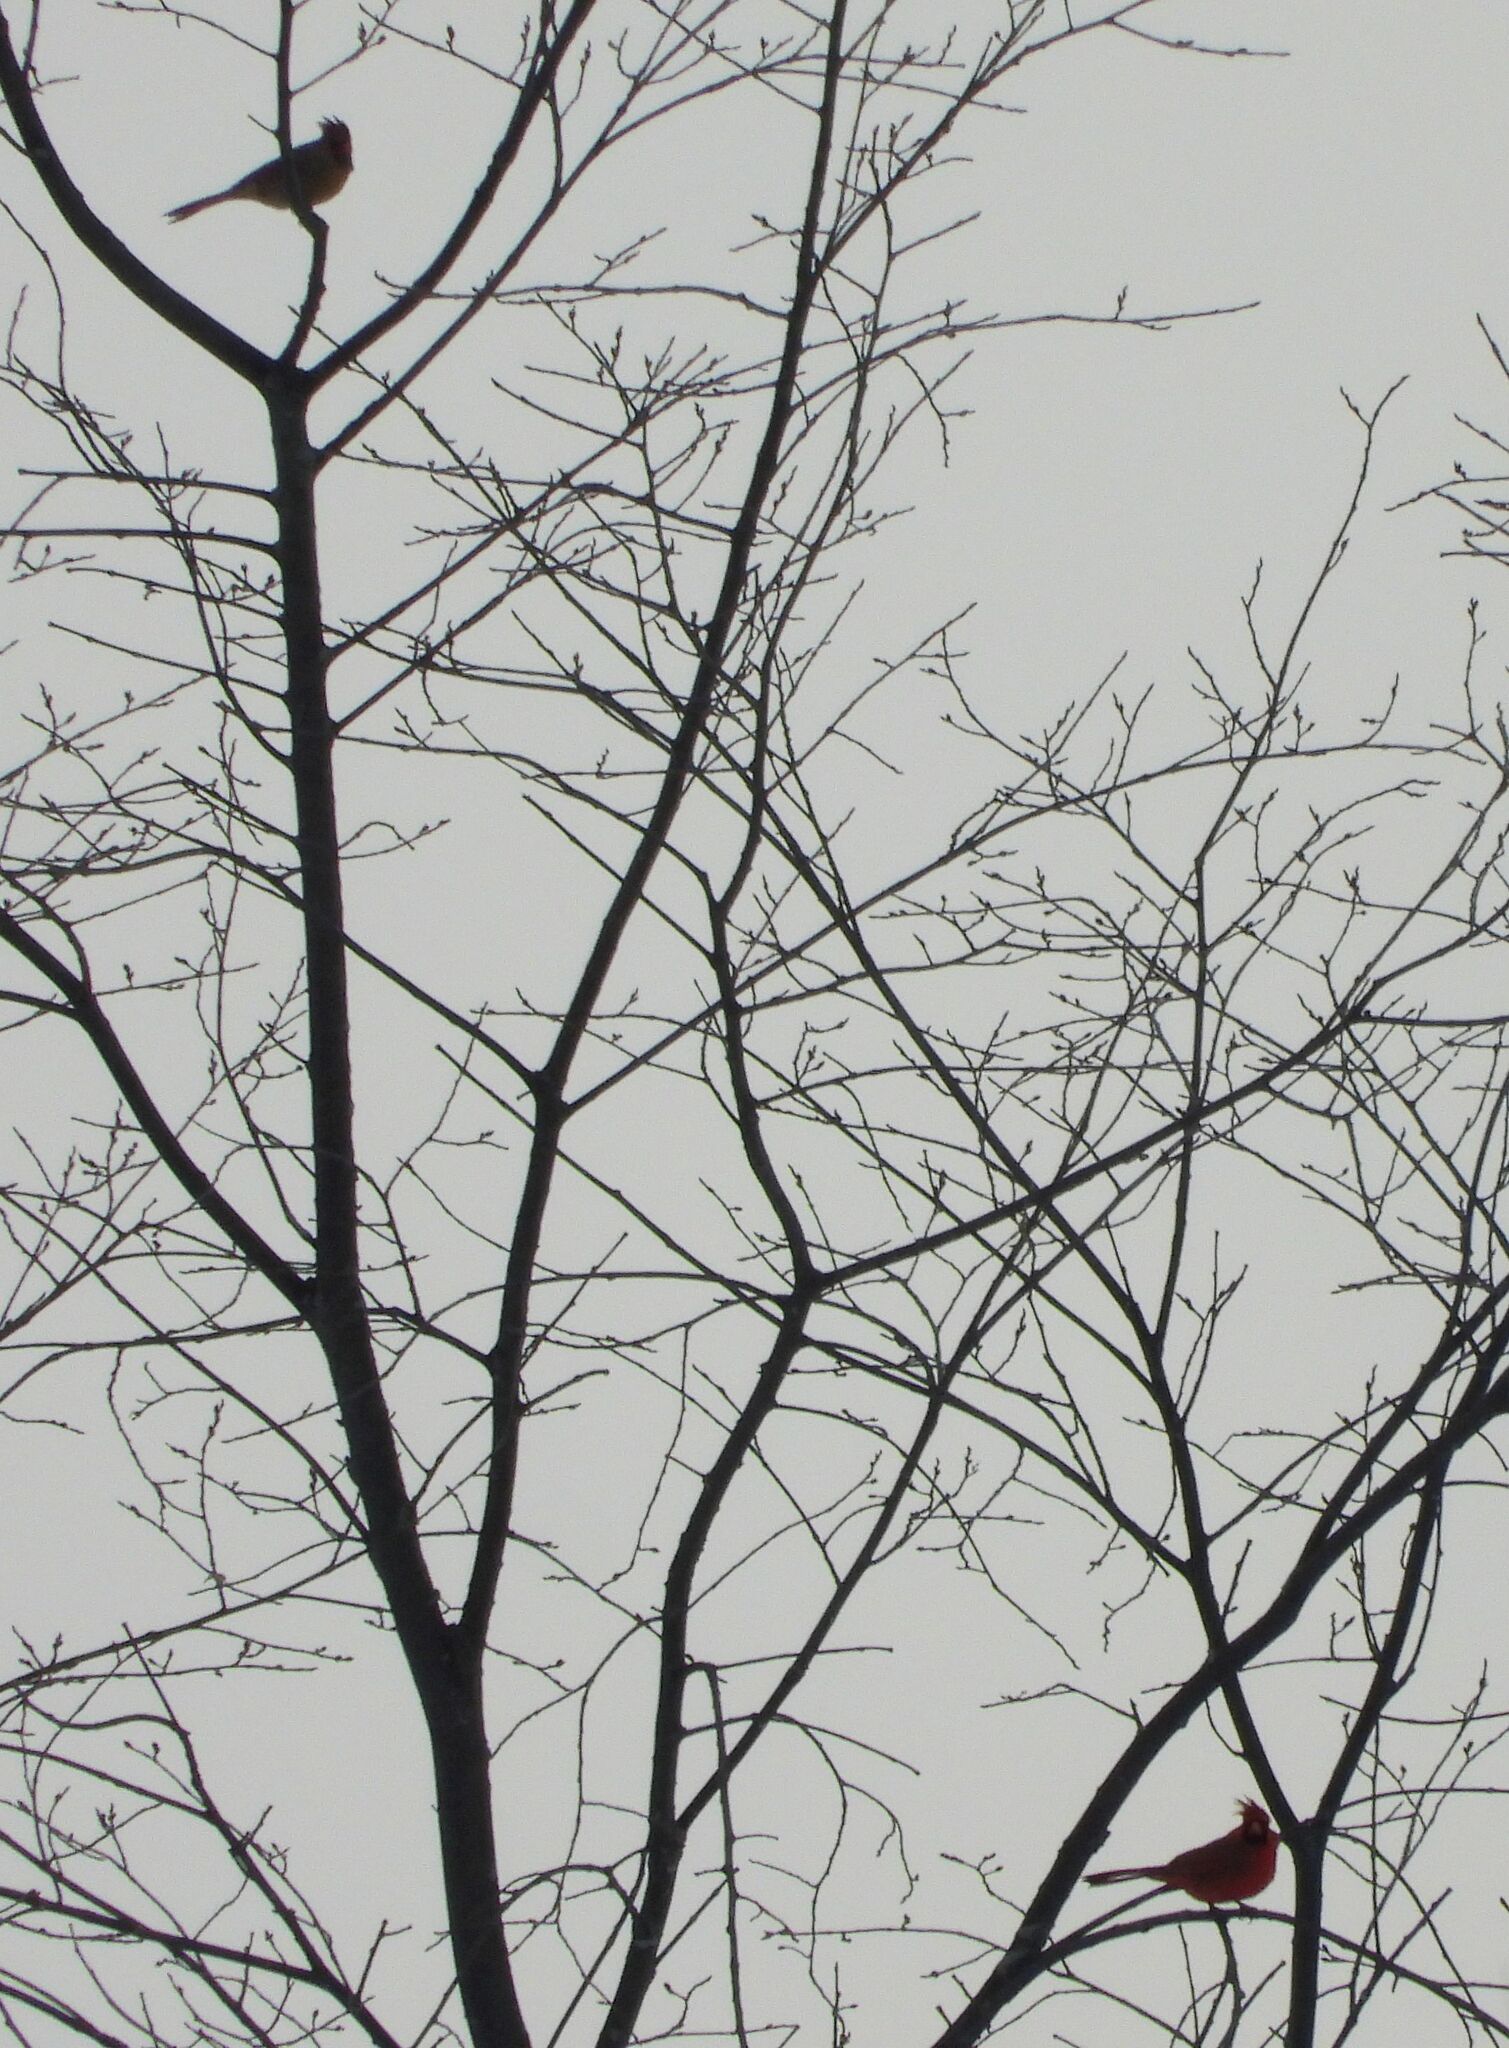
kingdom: Animalia
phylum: Chordata
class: Aves
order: Passeriformes
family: Cardinalidae
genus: Cardinalis
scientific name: Cardinalis cardinalis
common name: Northern cardinal
